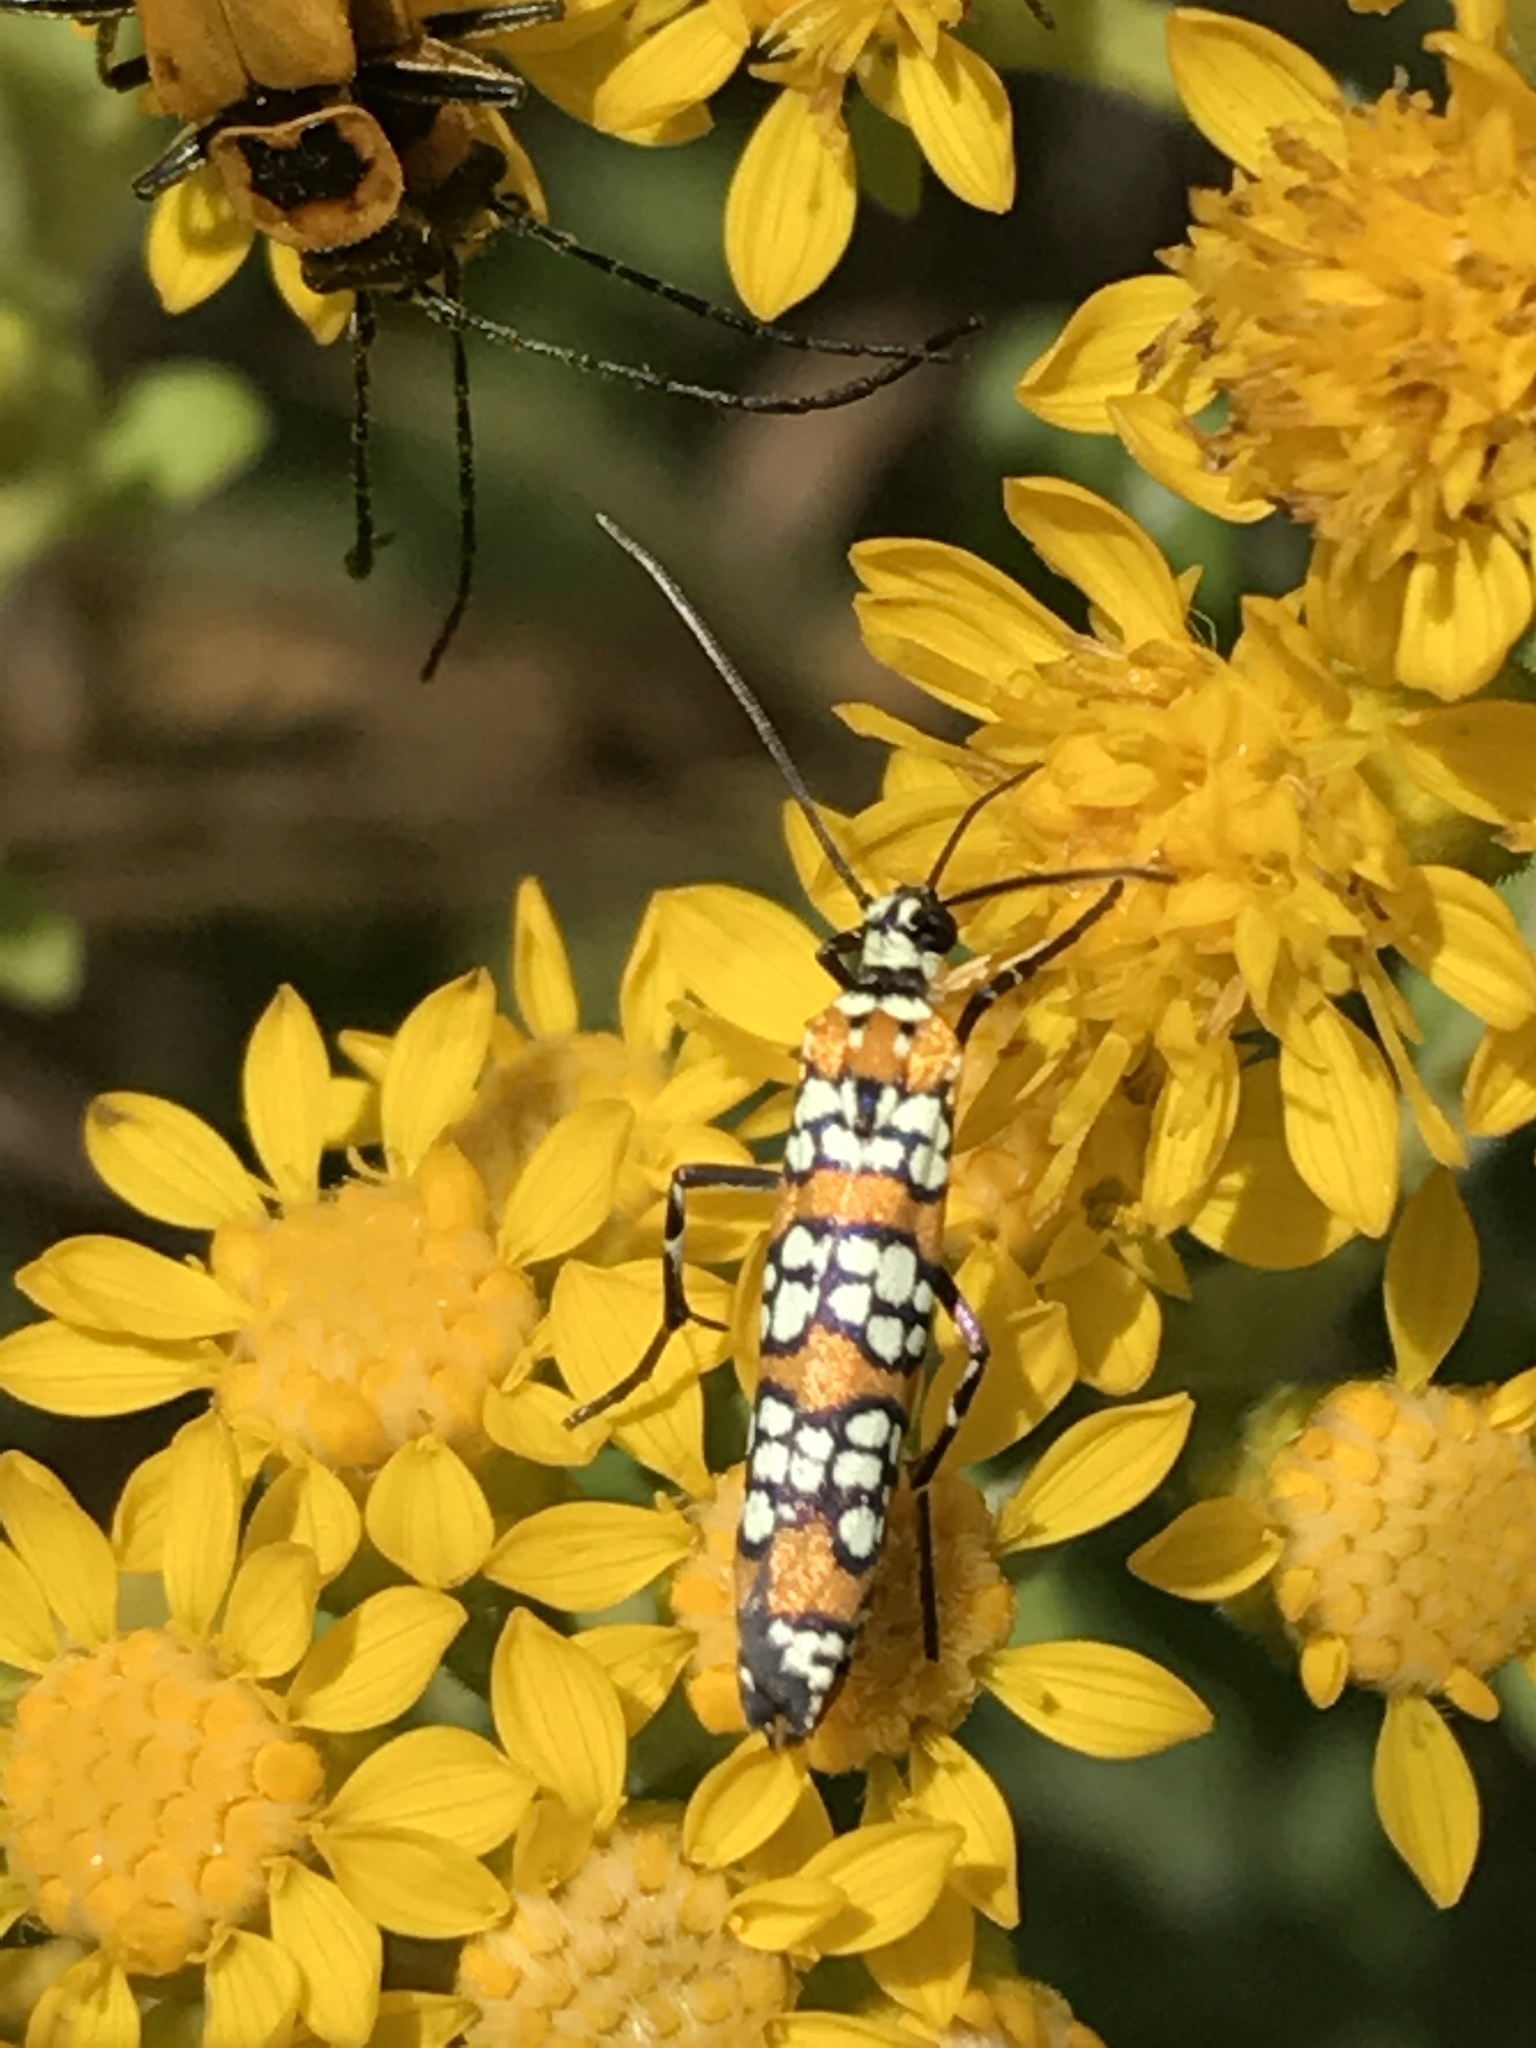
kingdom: Animalia
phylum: Arthropoda
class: Insecta
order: Lepidoptera
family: Attevidae
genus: Atteva
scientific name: Atteva punctella
